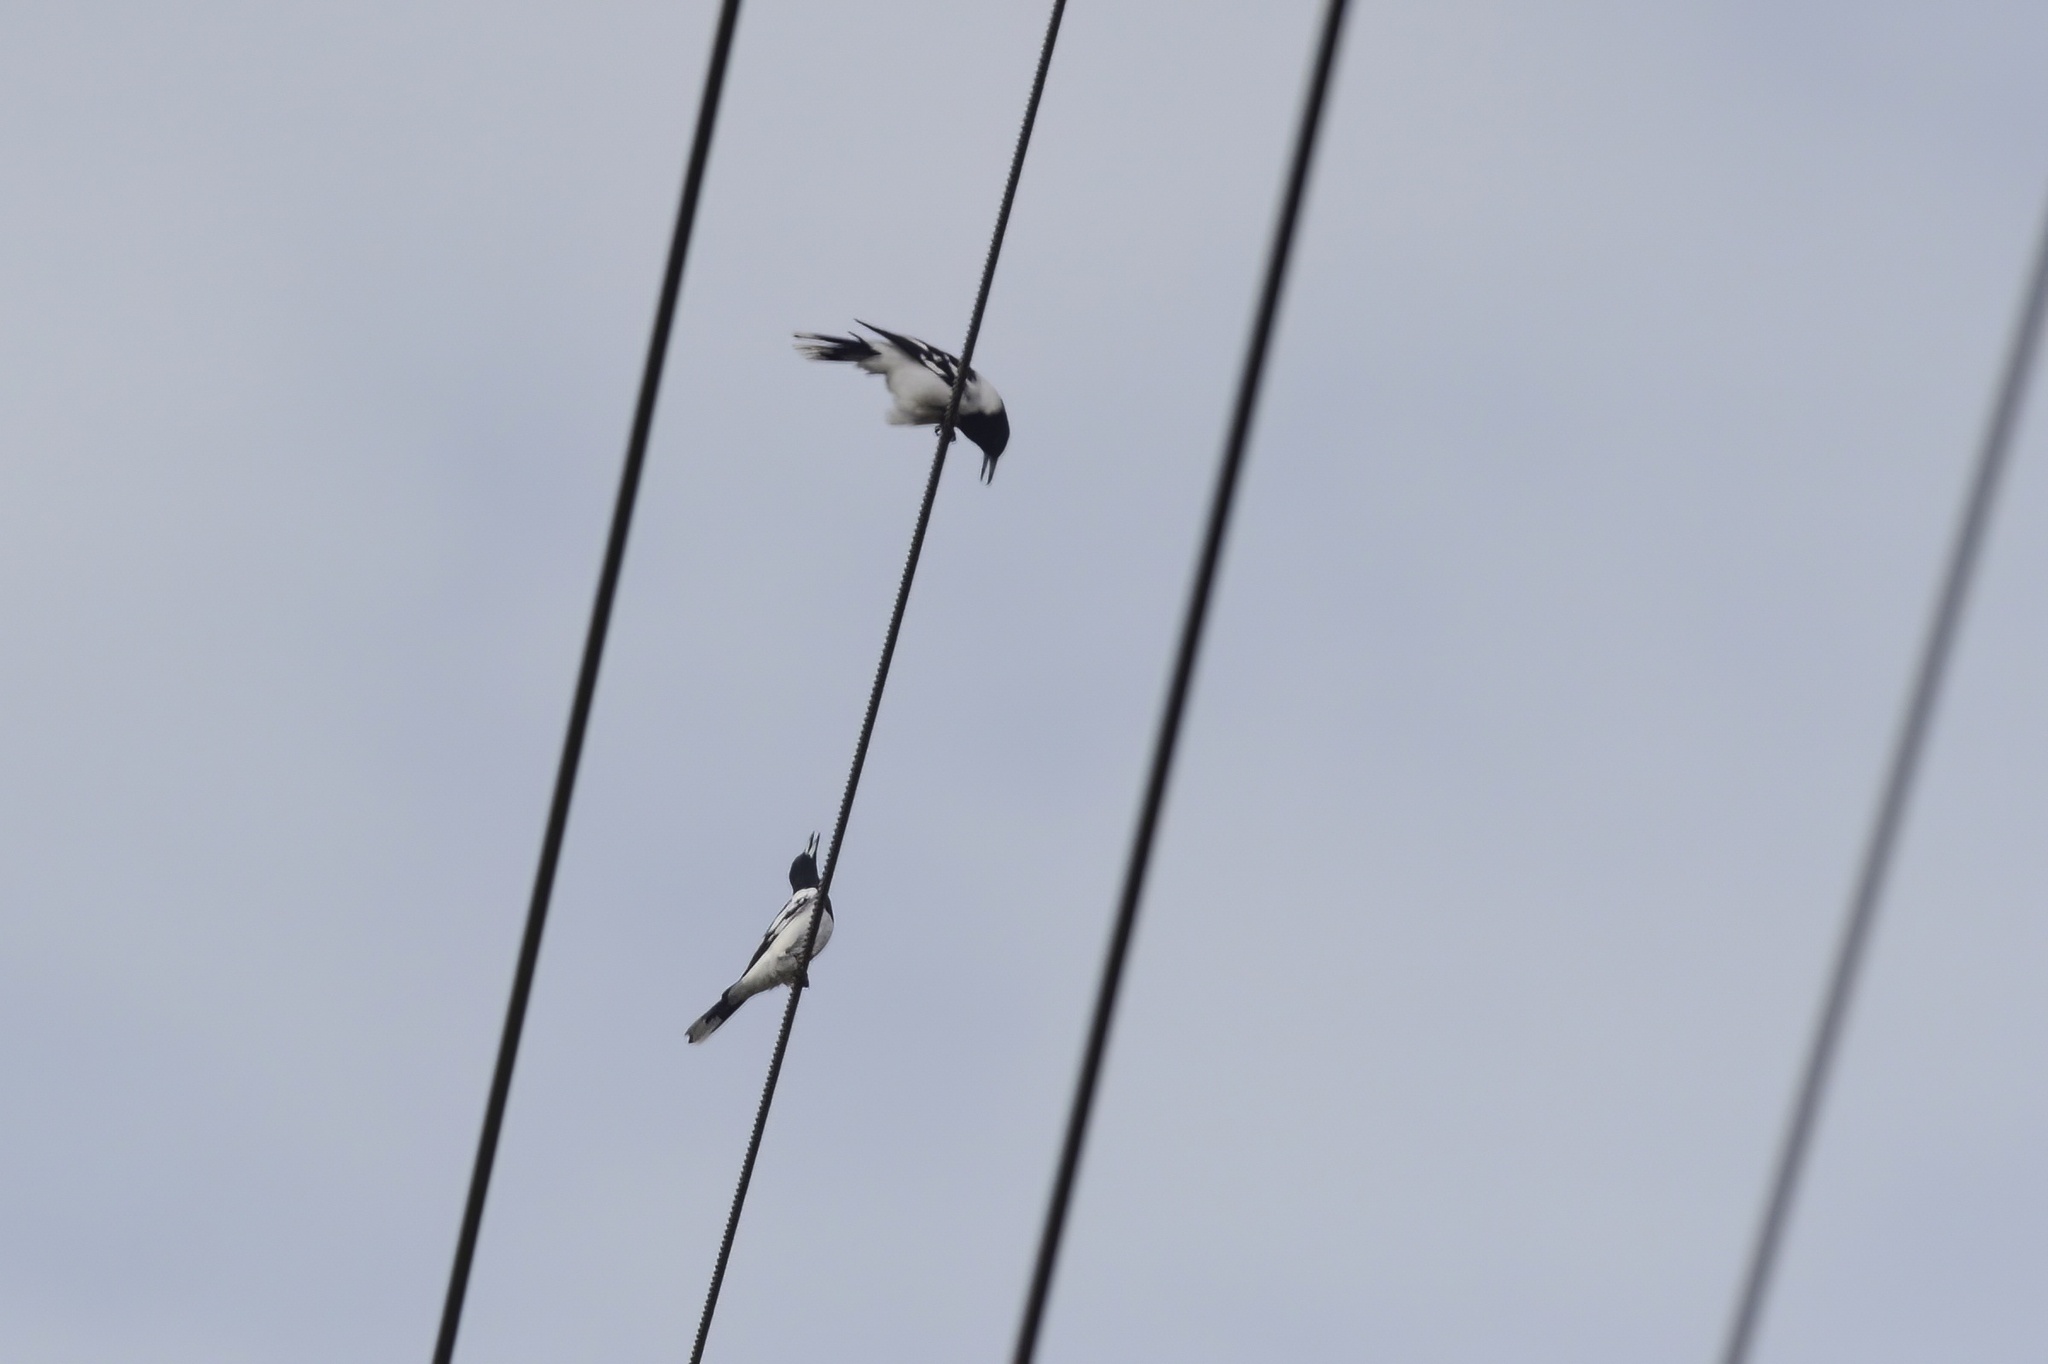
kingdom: Animalia
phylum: Chordata
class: Aves
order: Passeriformes
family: Cracticidae
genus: Cracticus
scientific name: Cracticus nigrogularis
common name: Pied butcherbird
